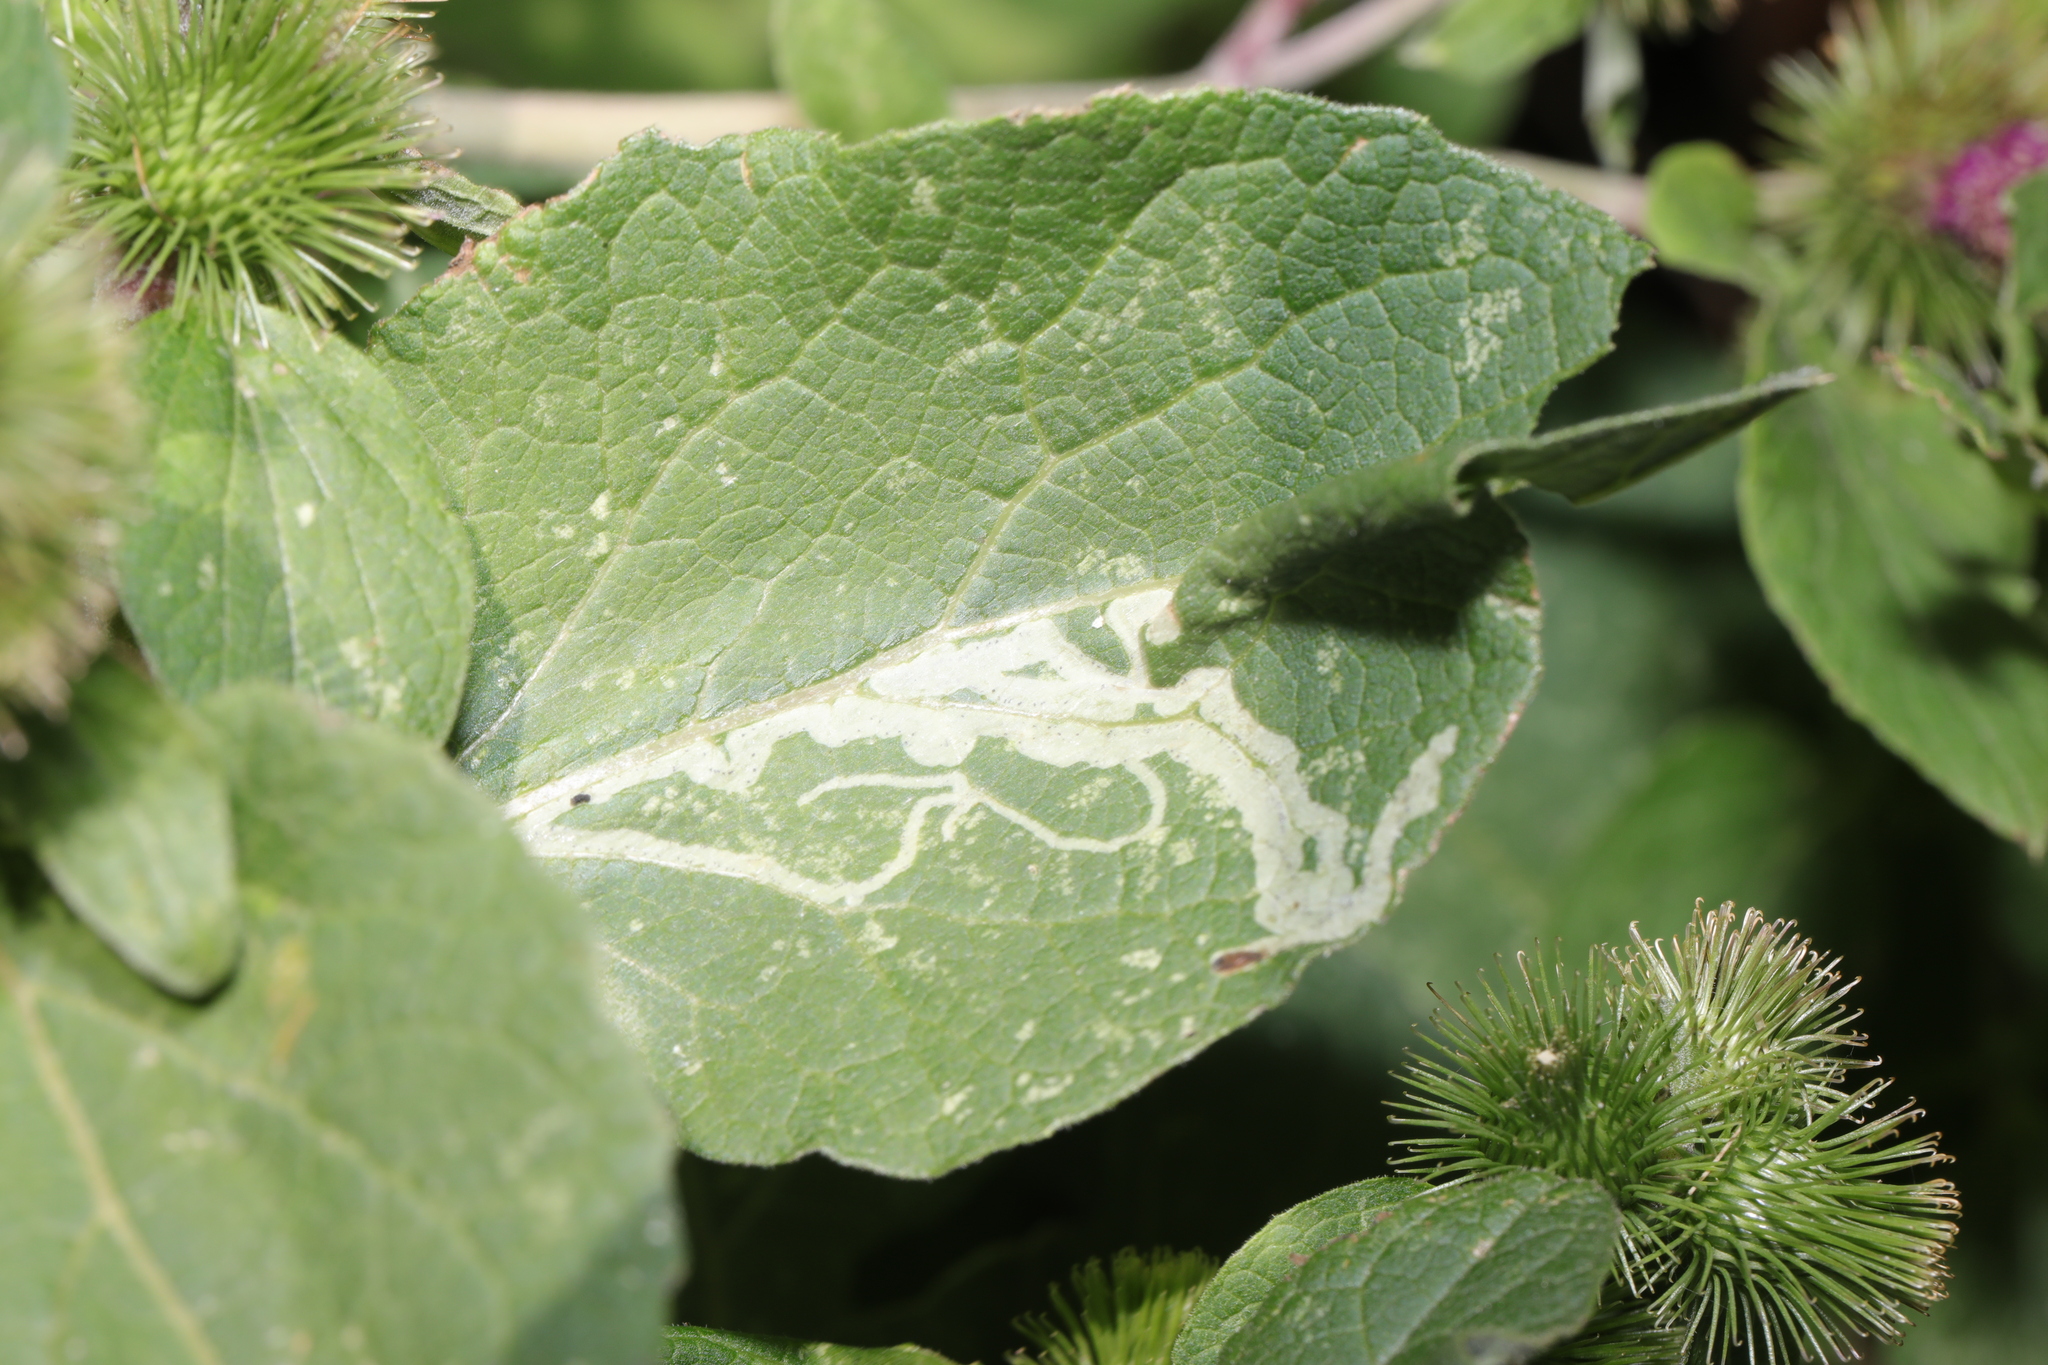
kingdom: Animalia
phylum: Arthropoda
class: Insecta
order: Diptera
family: Agromyzidae
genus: Phytomyza
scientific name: Phytomyza lappae
